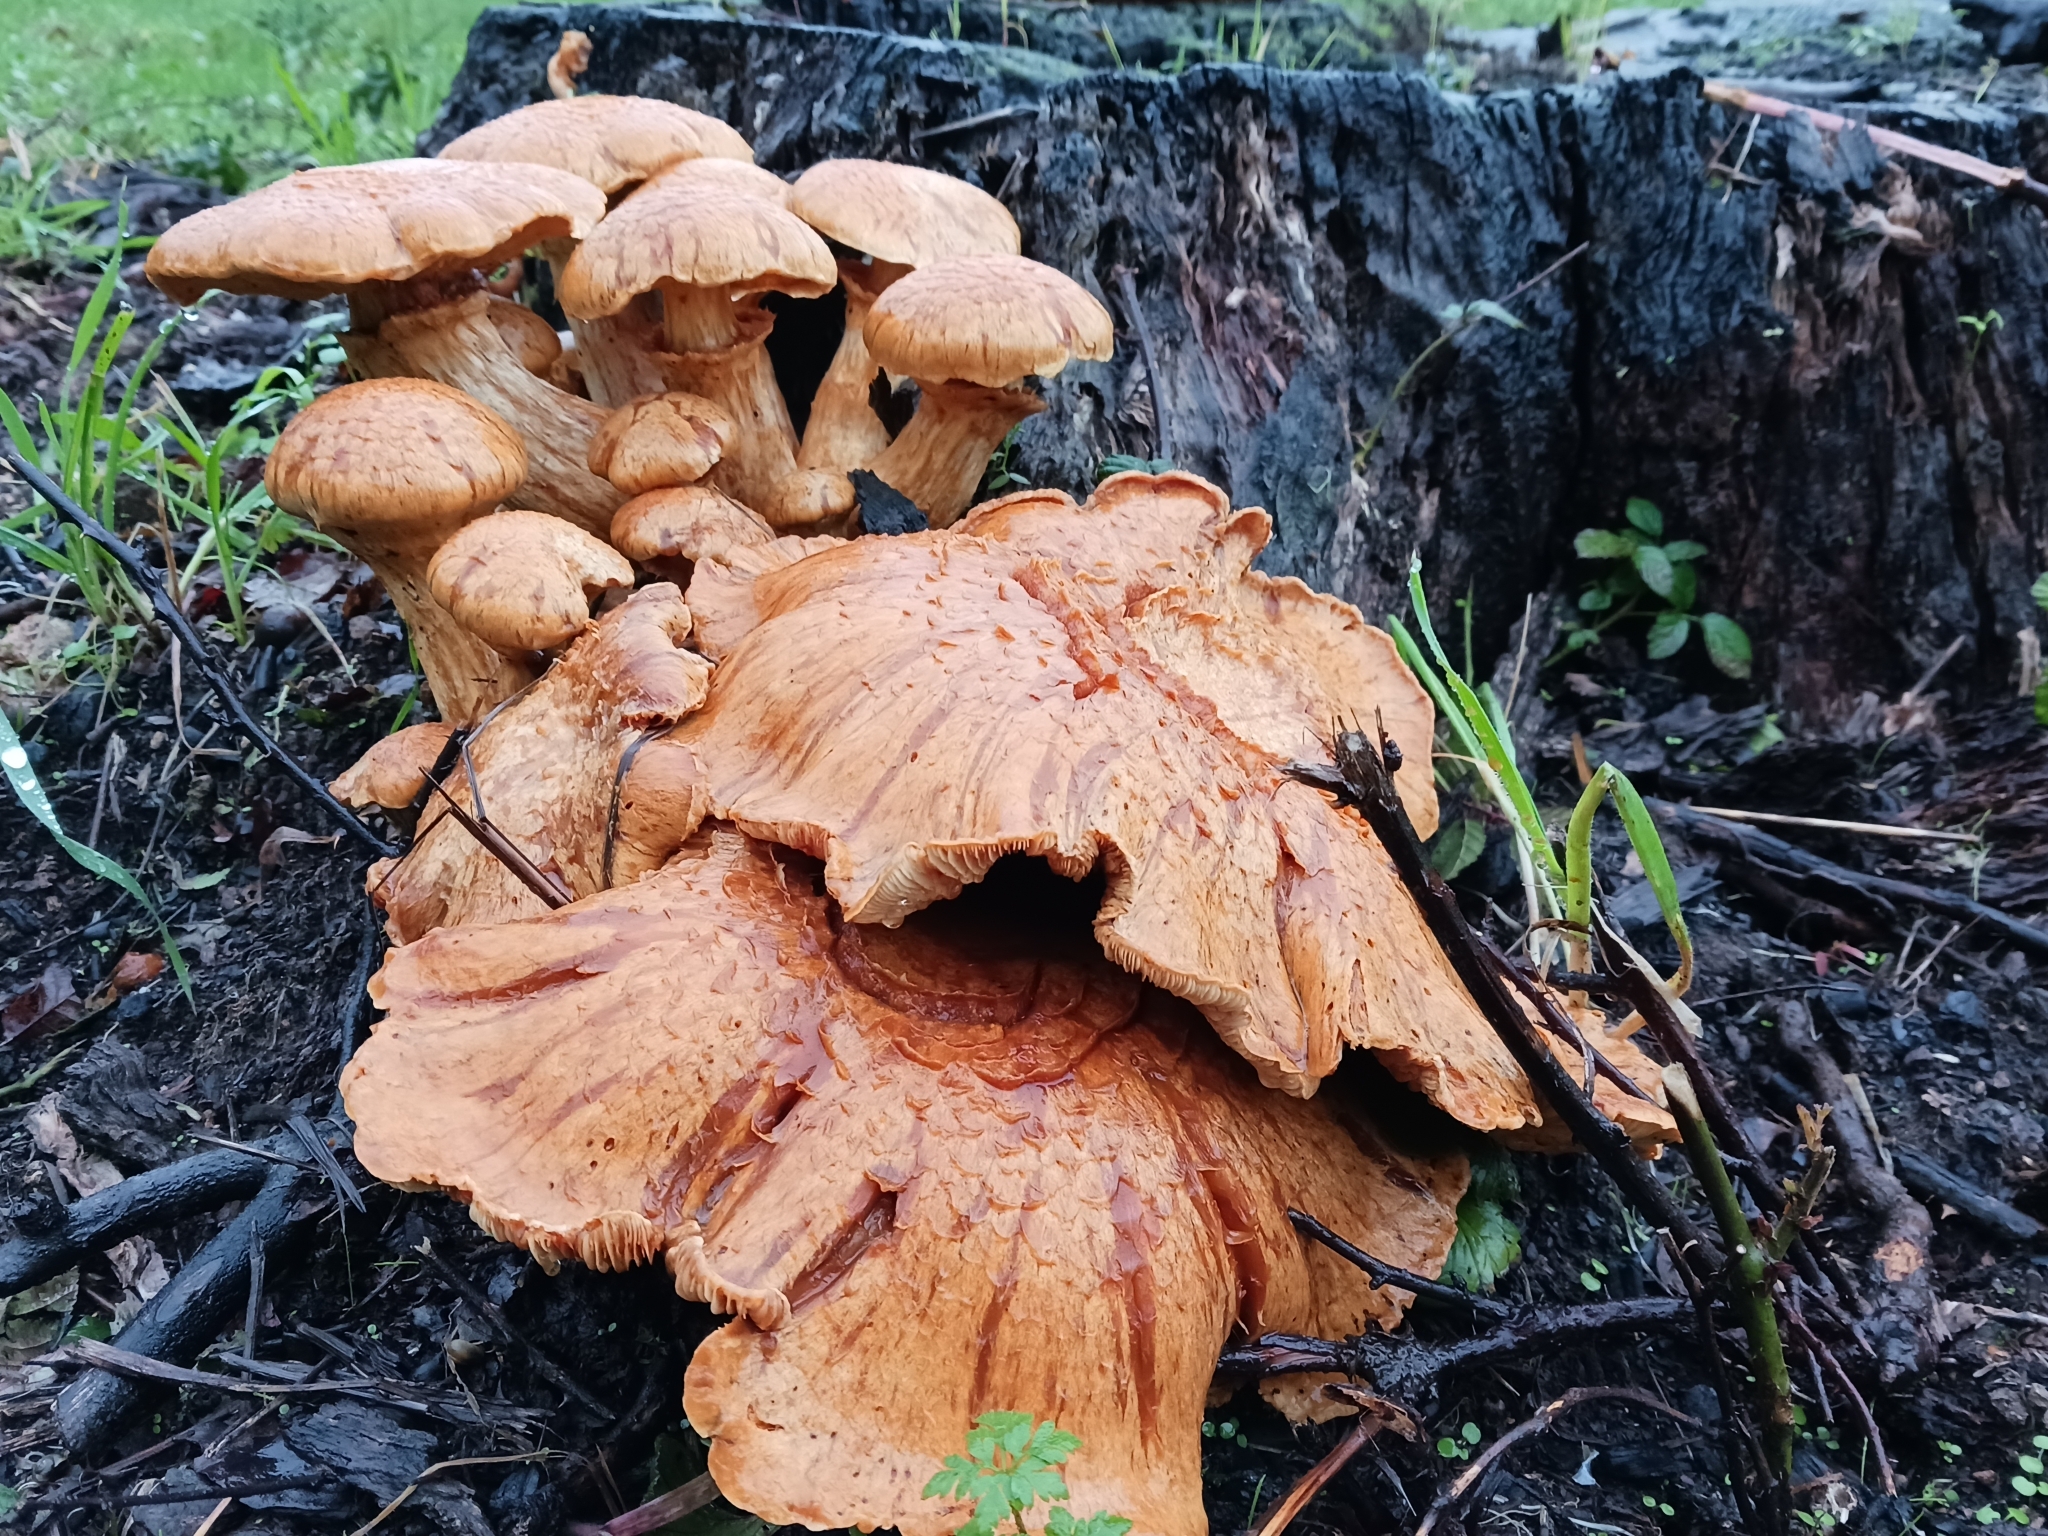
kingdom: Fungi
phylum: Basidiomycota
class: Agaricomycetes
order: Agaricales
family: Hymenogastraceae
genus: Gymnopilus
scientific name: Gymnopilus junonius
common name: Spectacular rustgill
